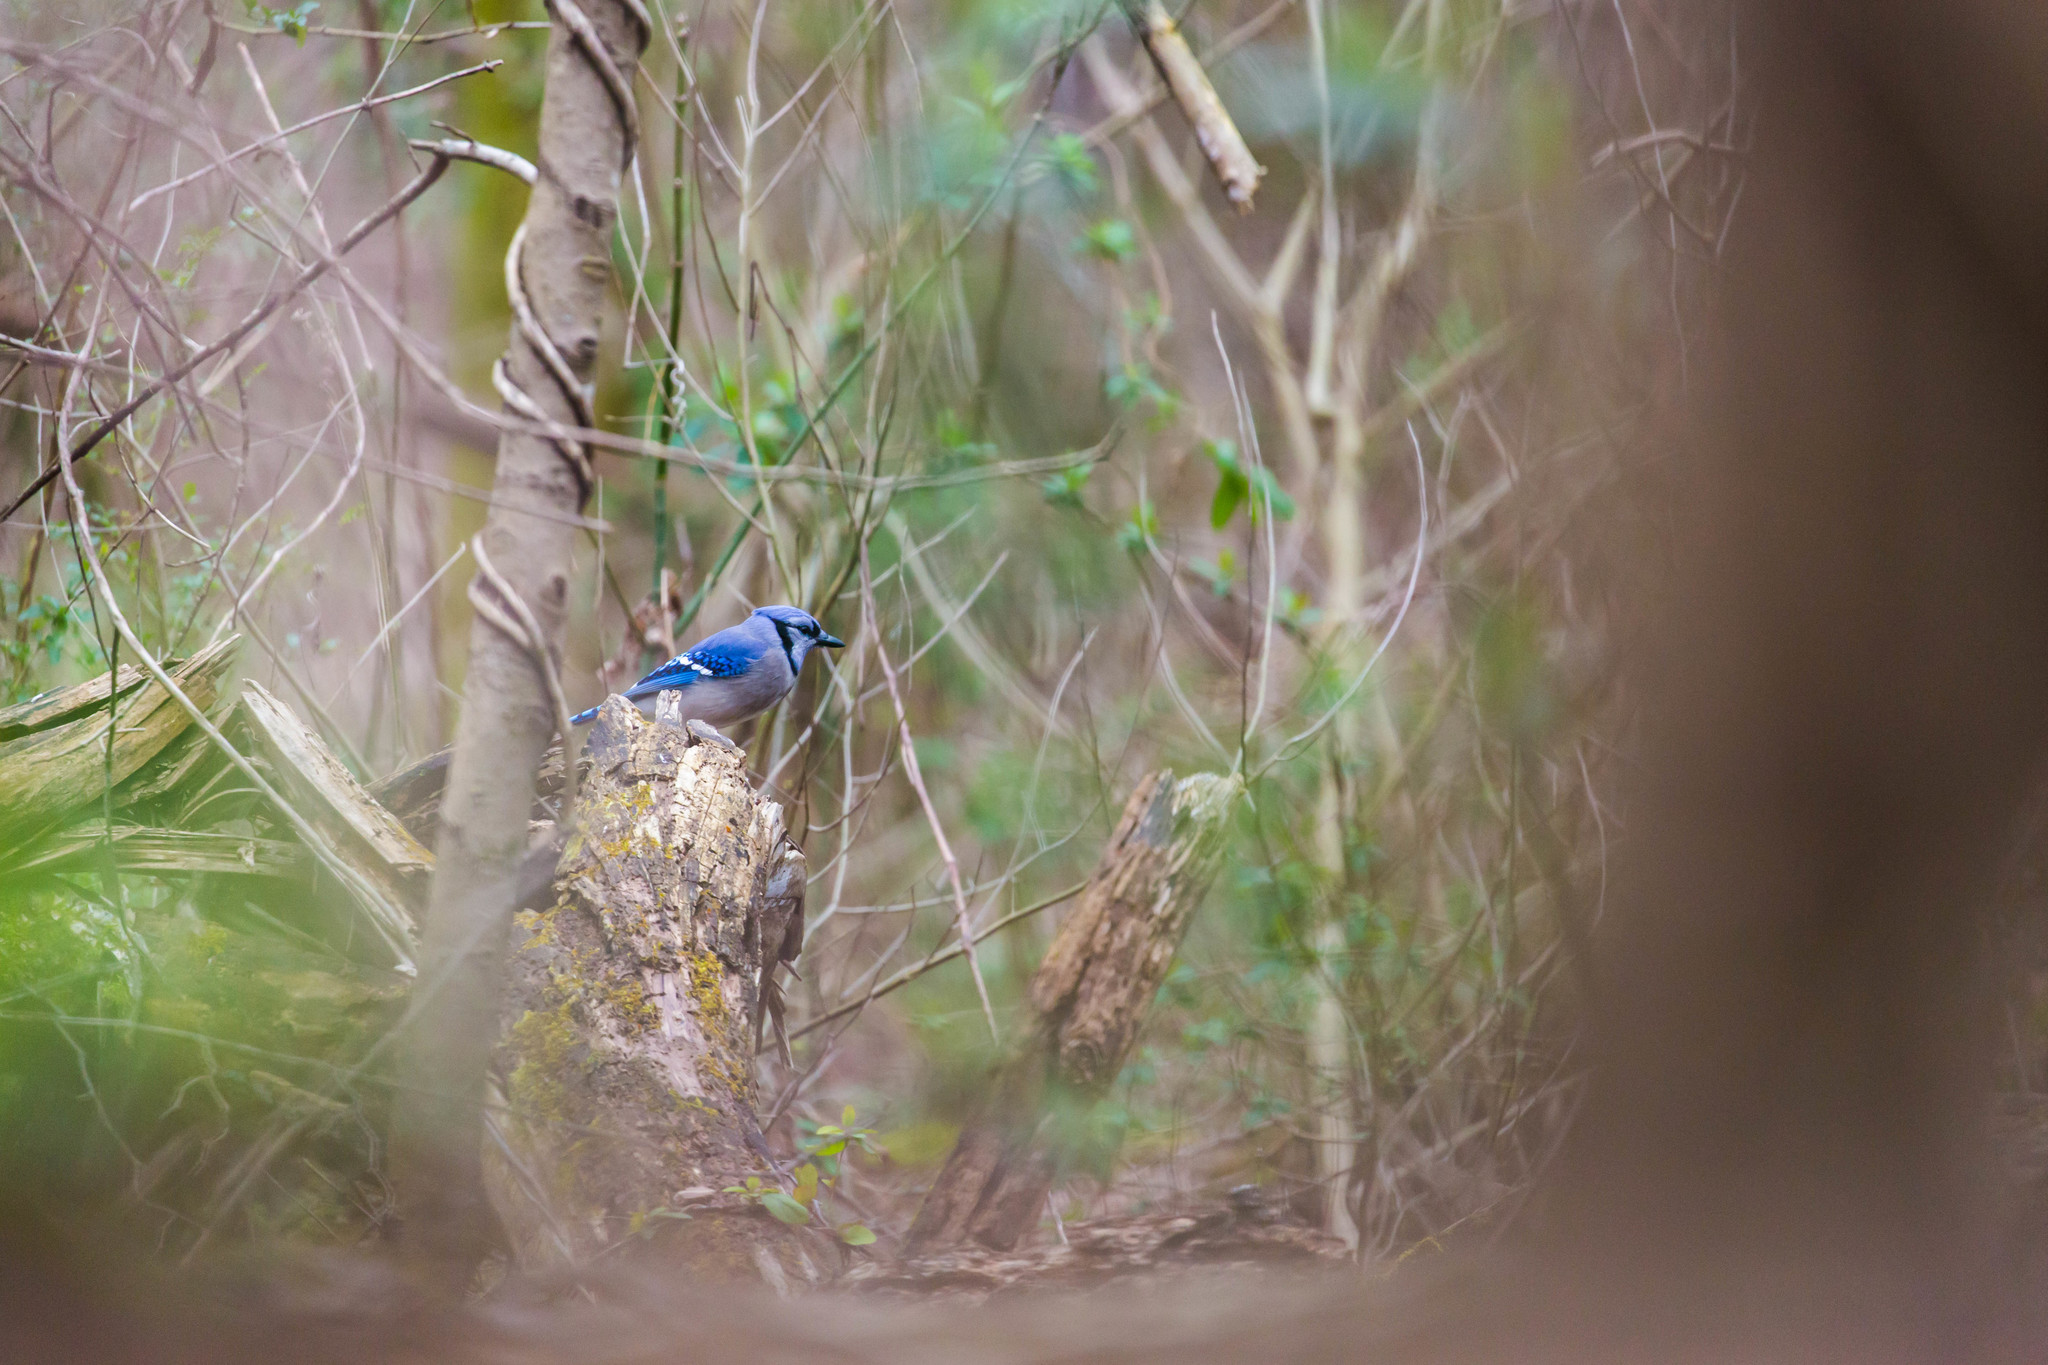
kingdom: Animalia
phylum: Chordata
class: Aves
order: Passeriformes
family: Corvidae
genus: Cyanocitta
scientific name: Cyanocitta cristata
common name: Blue jay
